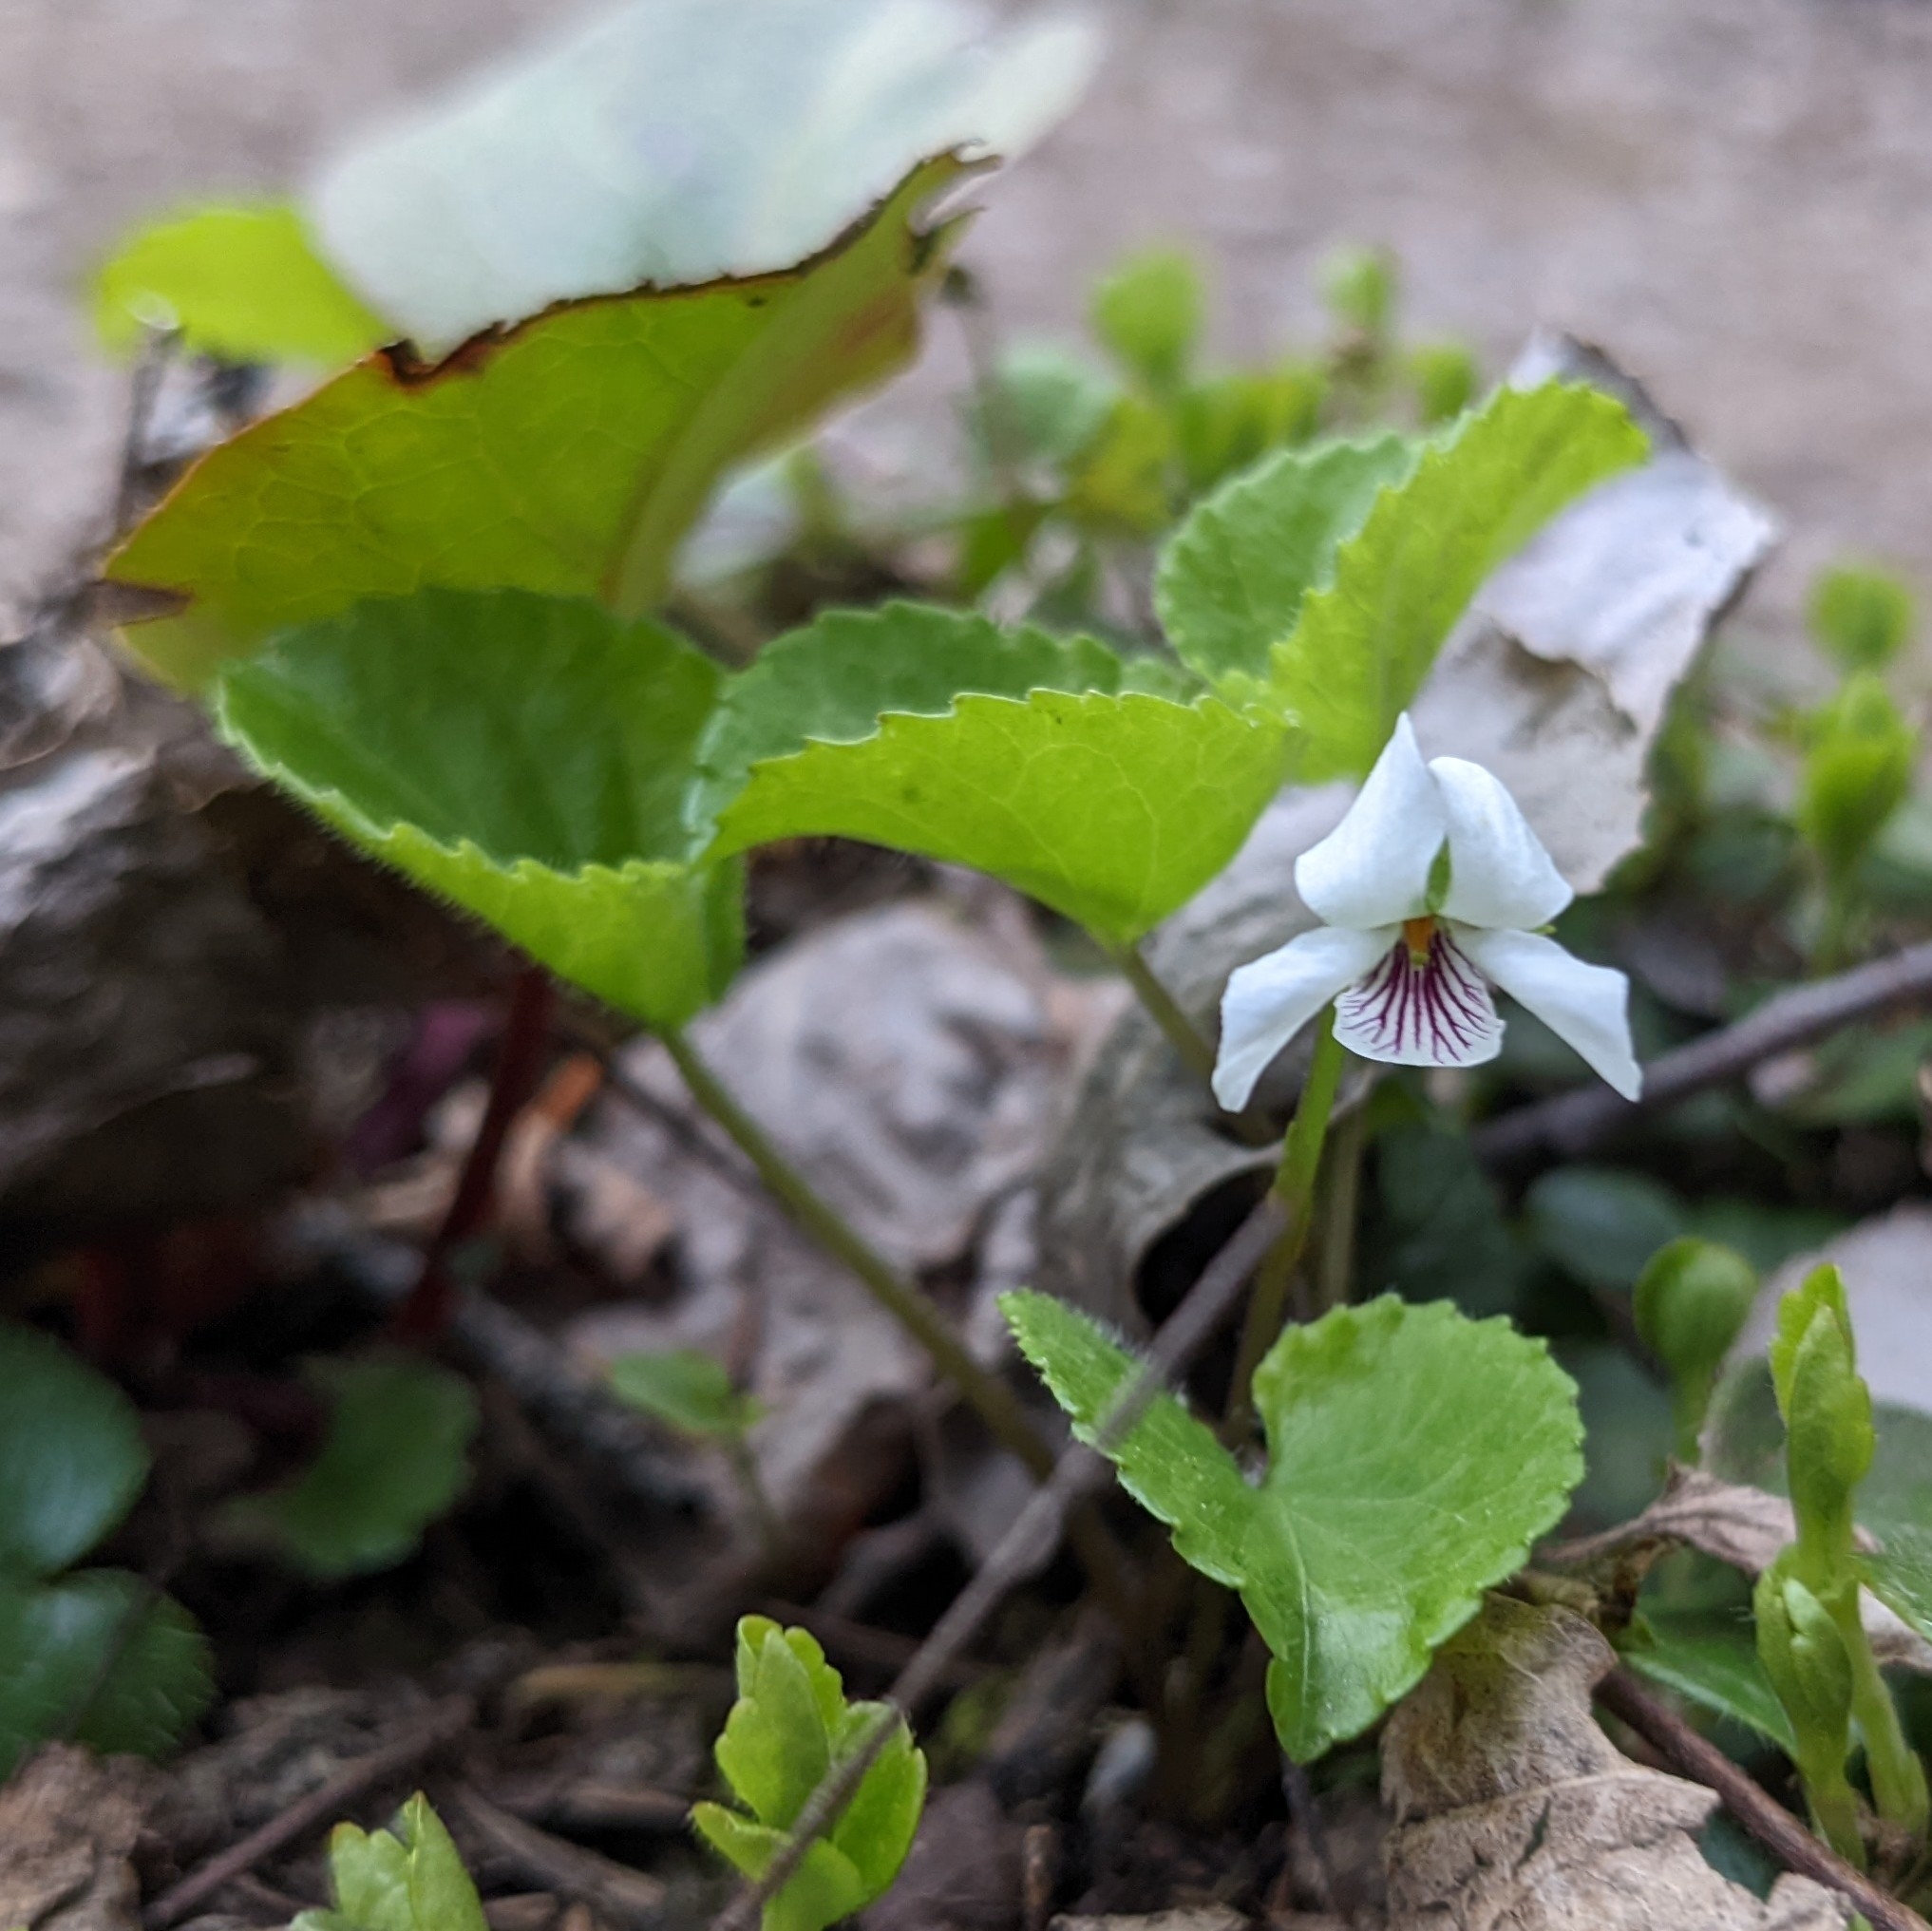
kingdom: Plantae
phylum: Tracheophyta
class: Magnoliopsida
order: Malpighiales
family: Violaceae
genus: Viola
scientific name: Viola renifolia
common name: Kidney-leaf violet
